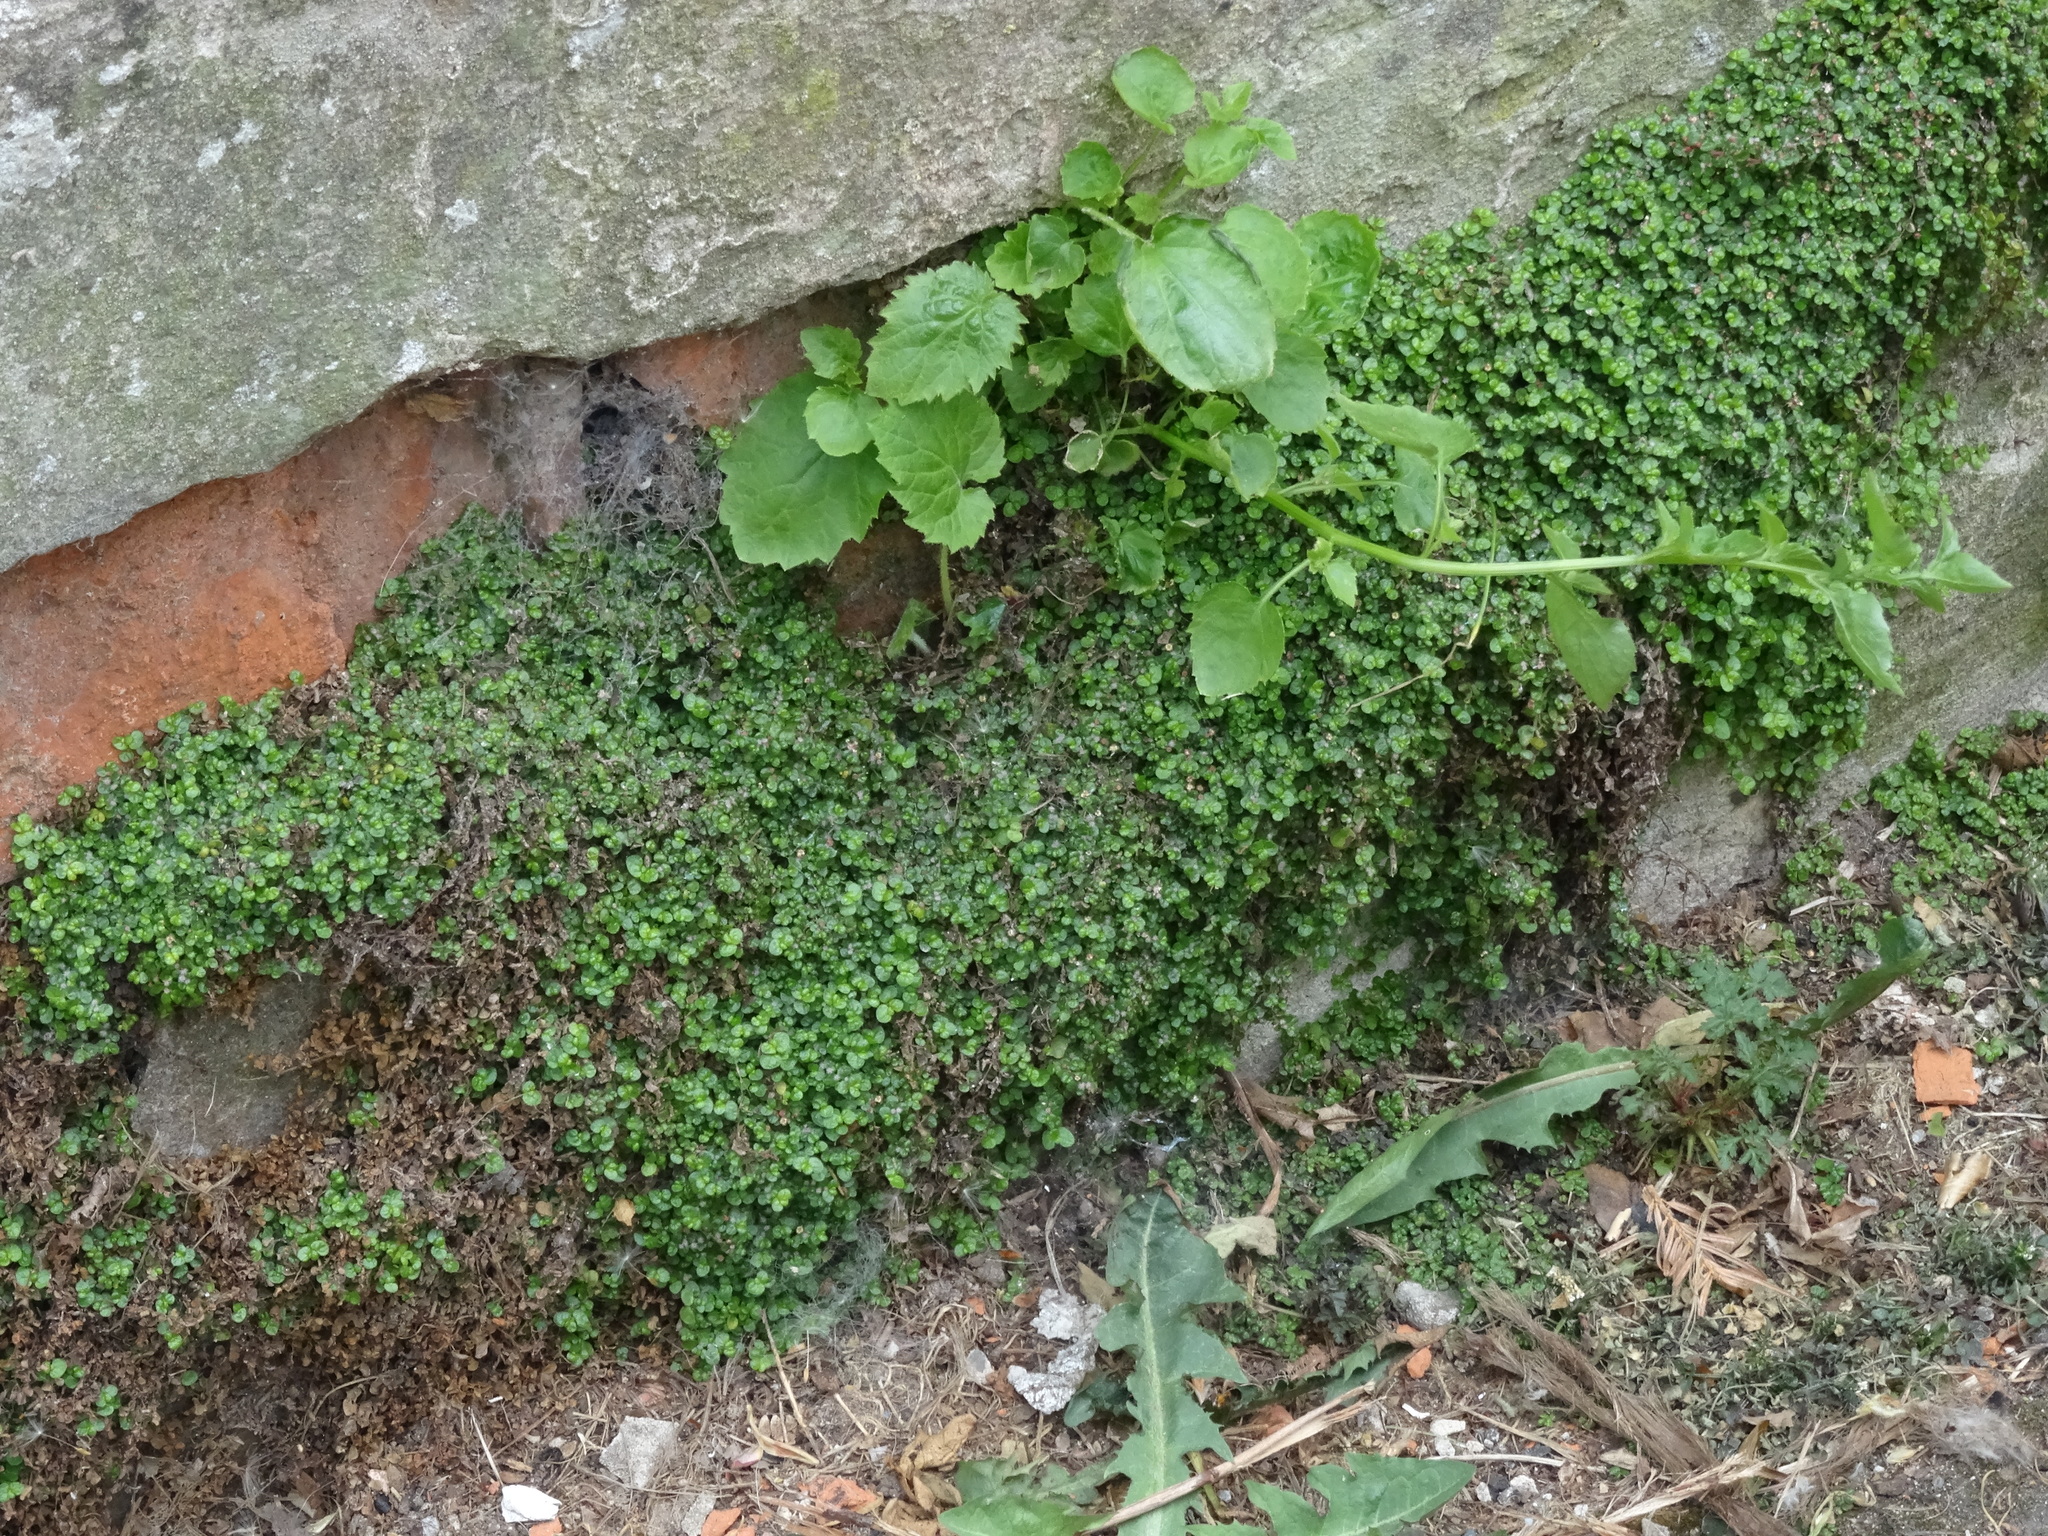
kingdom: Plantae
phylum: Tracheophyta
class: Magnoliopsida
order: Rosales
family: Urticaceae
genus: Soleirolia
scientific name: Soleirolia soleirolii
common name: Mind-your-own-business
